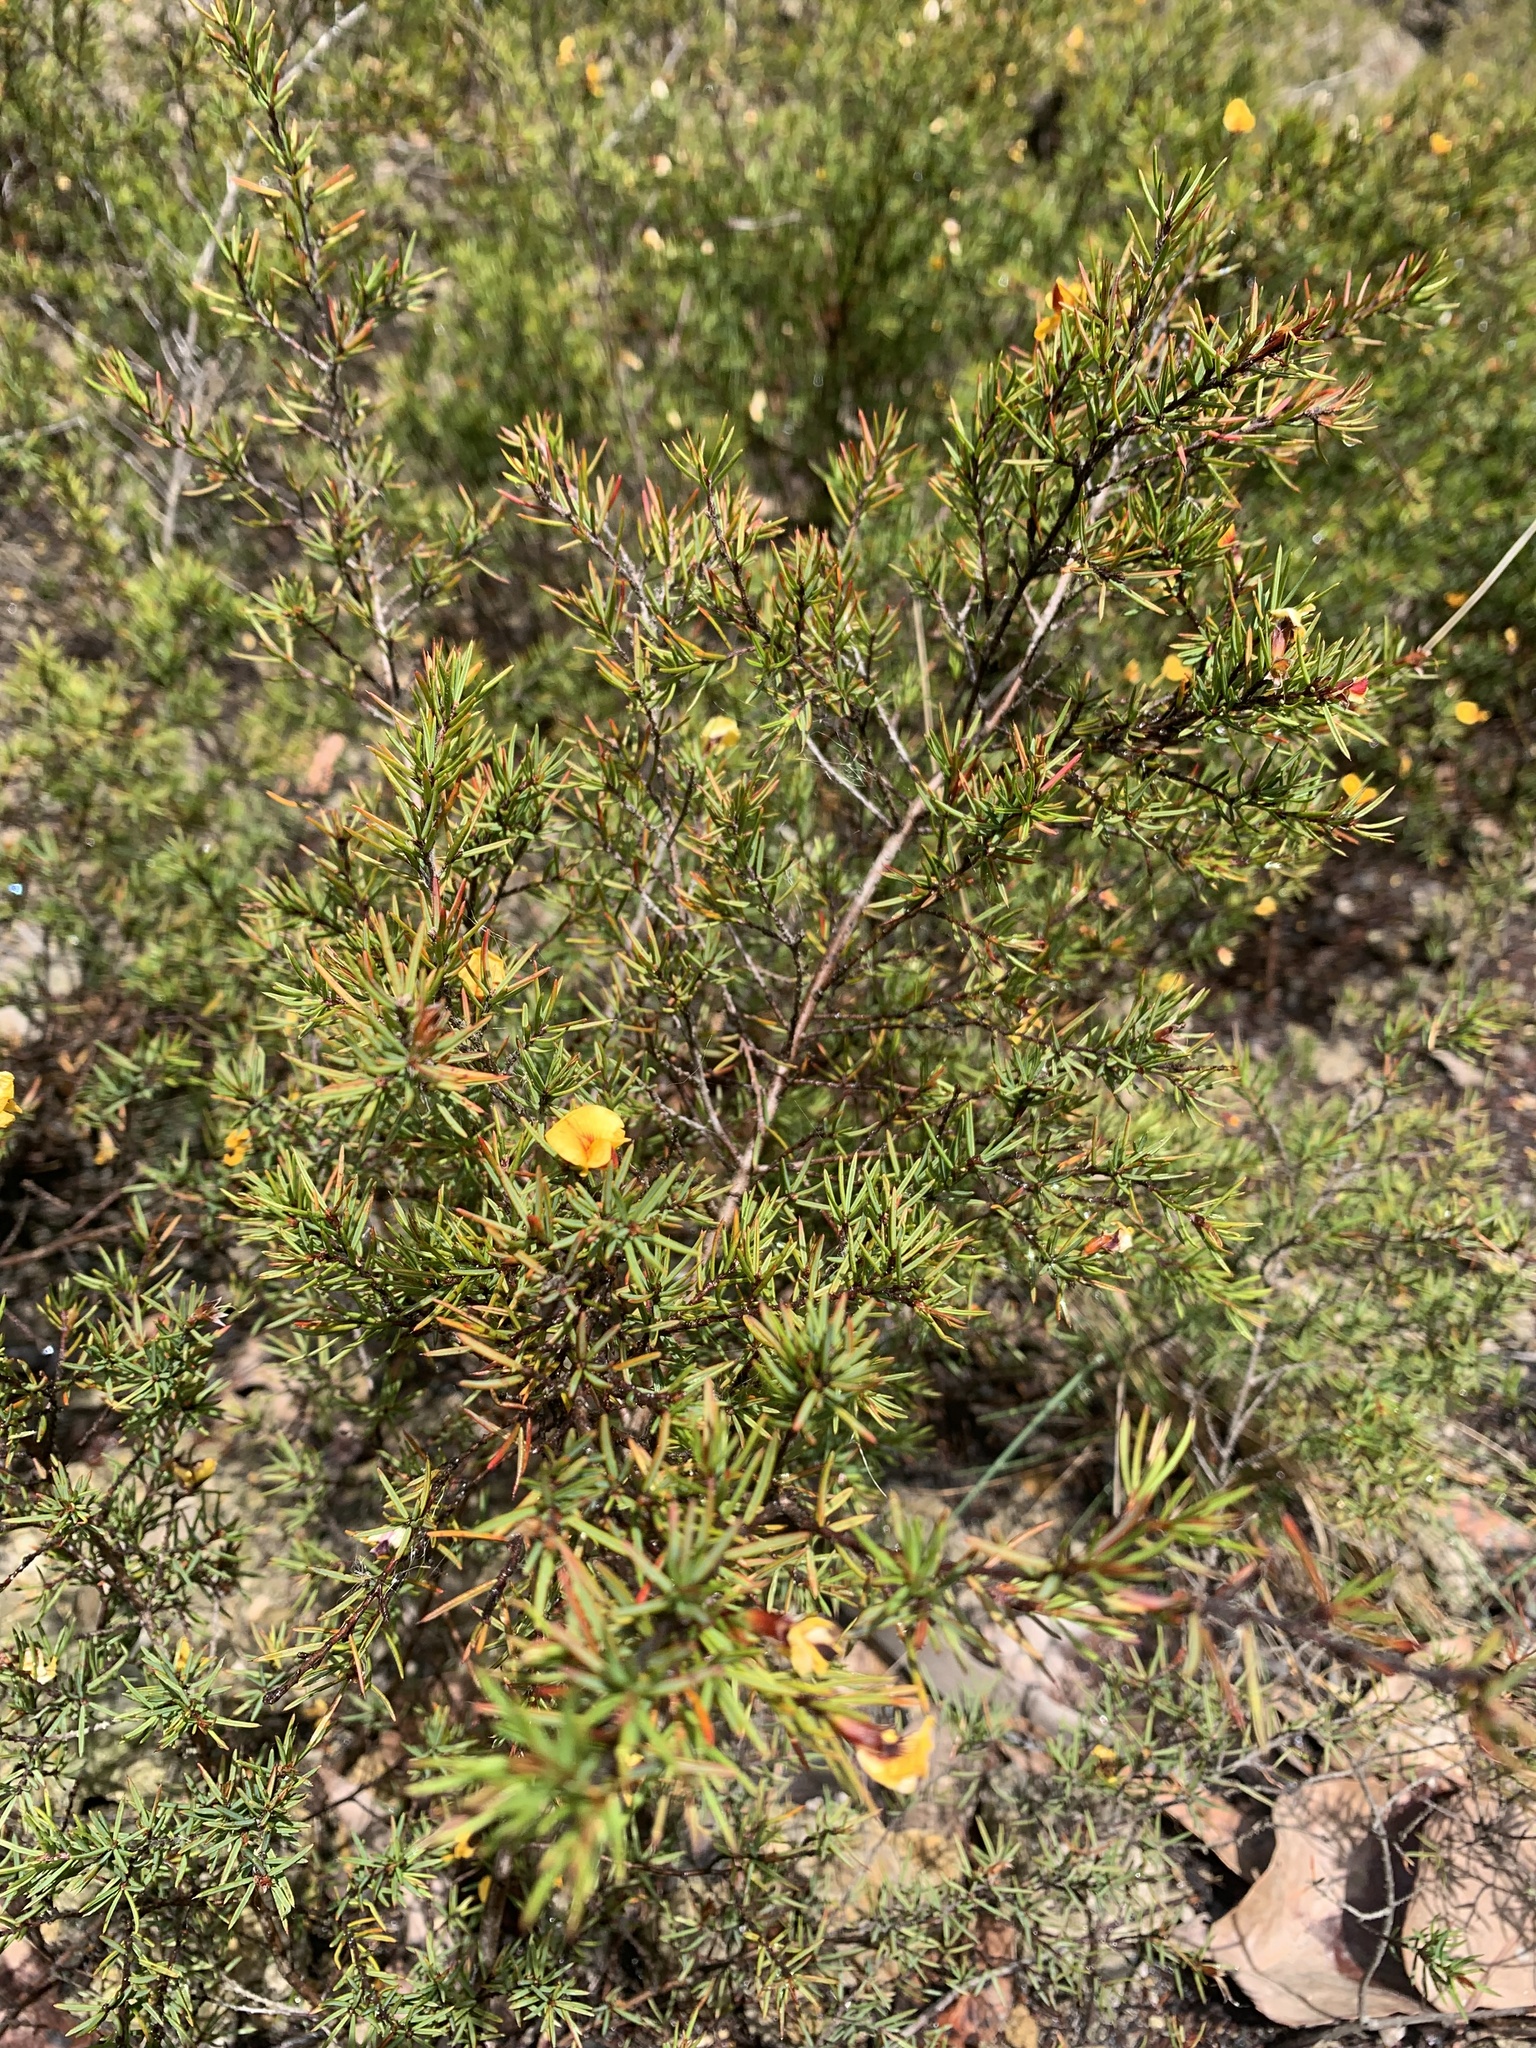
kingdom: Plantae
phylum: Tracheophyta
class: Magnoliopsida
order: Fabales
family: Fabaceae
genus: Pultenaea
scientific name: Pultenaea juniperina
